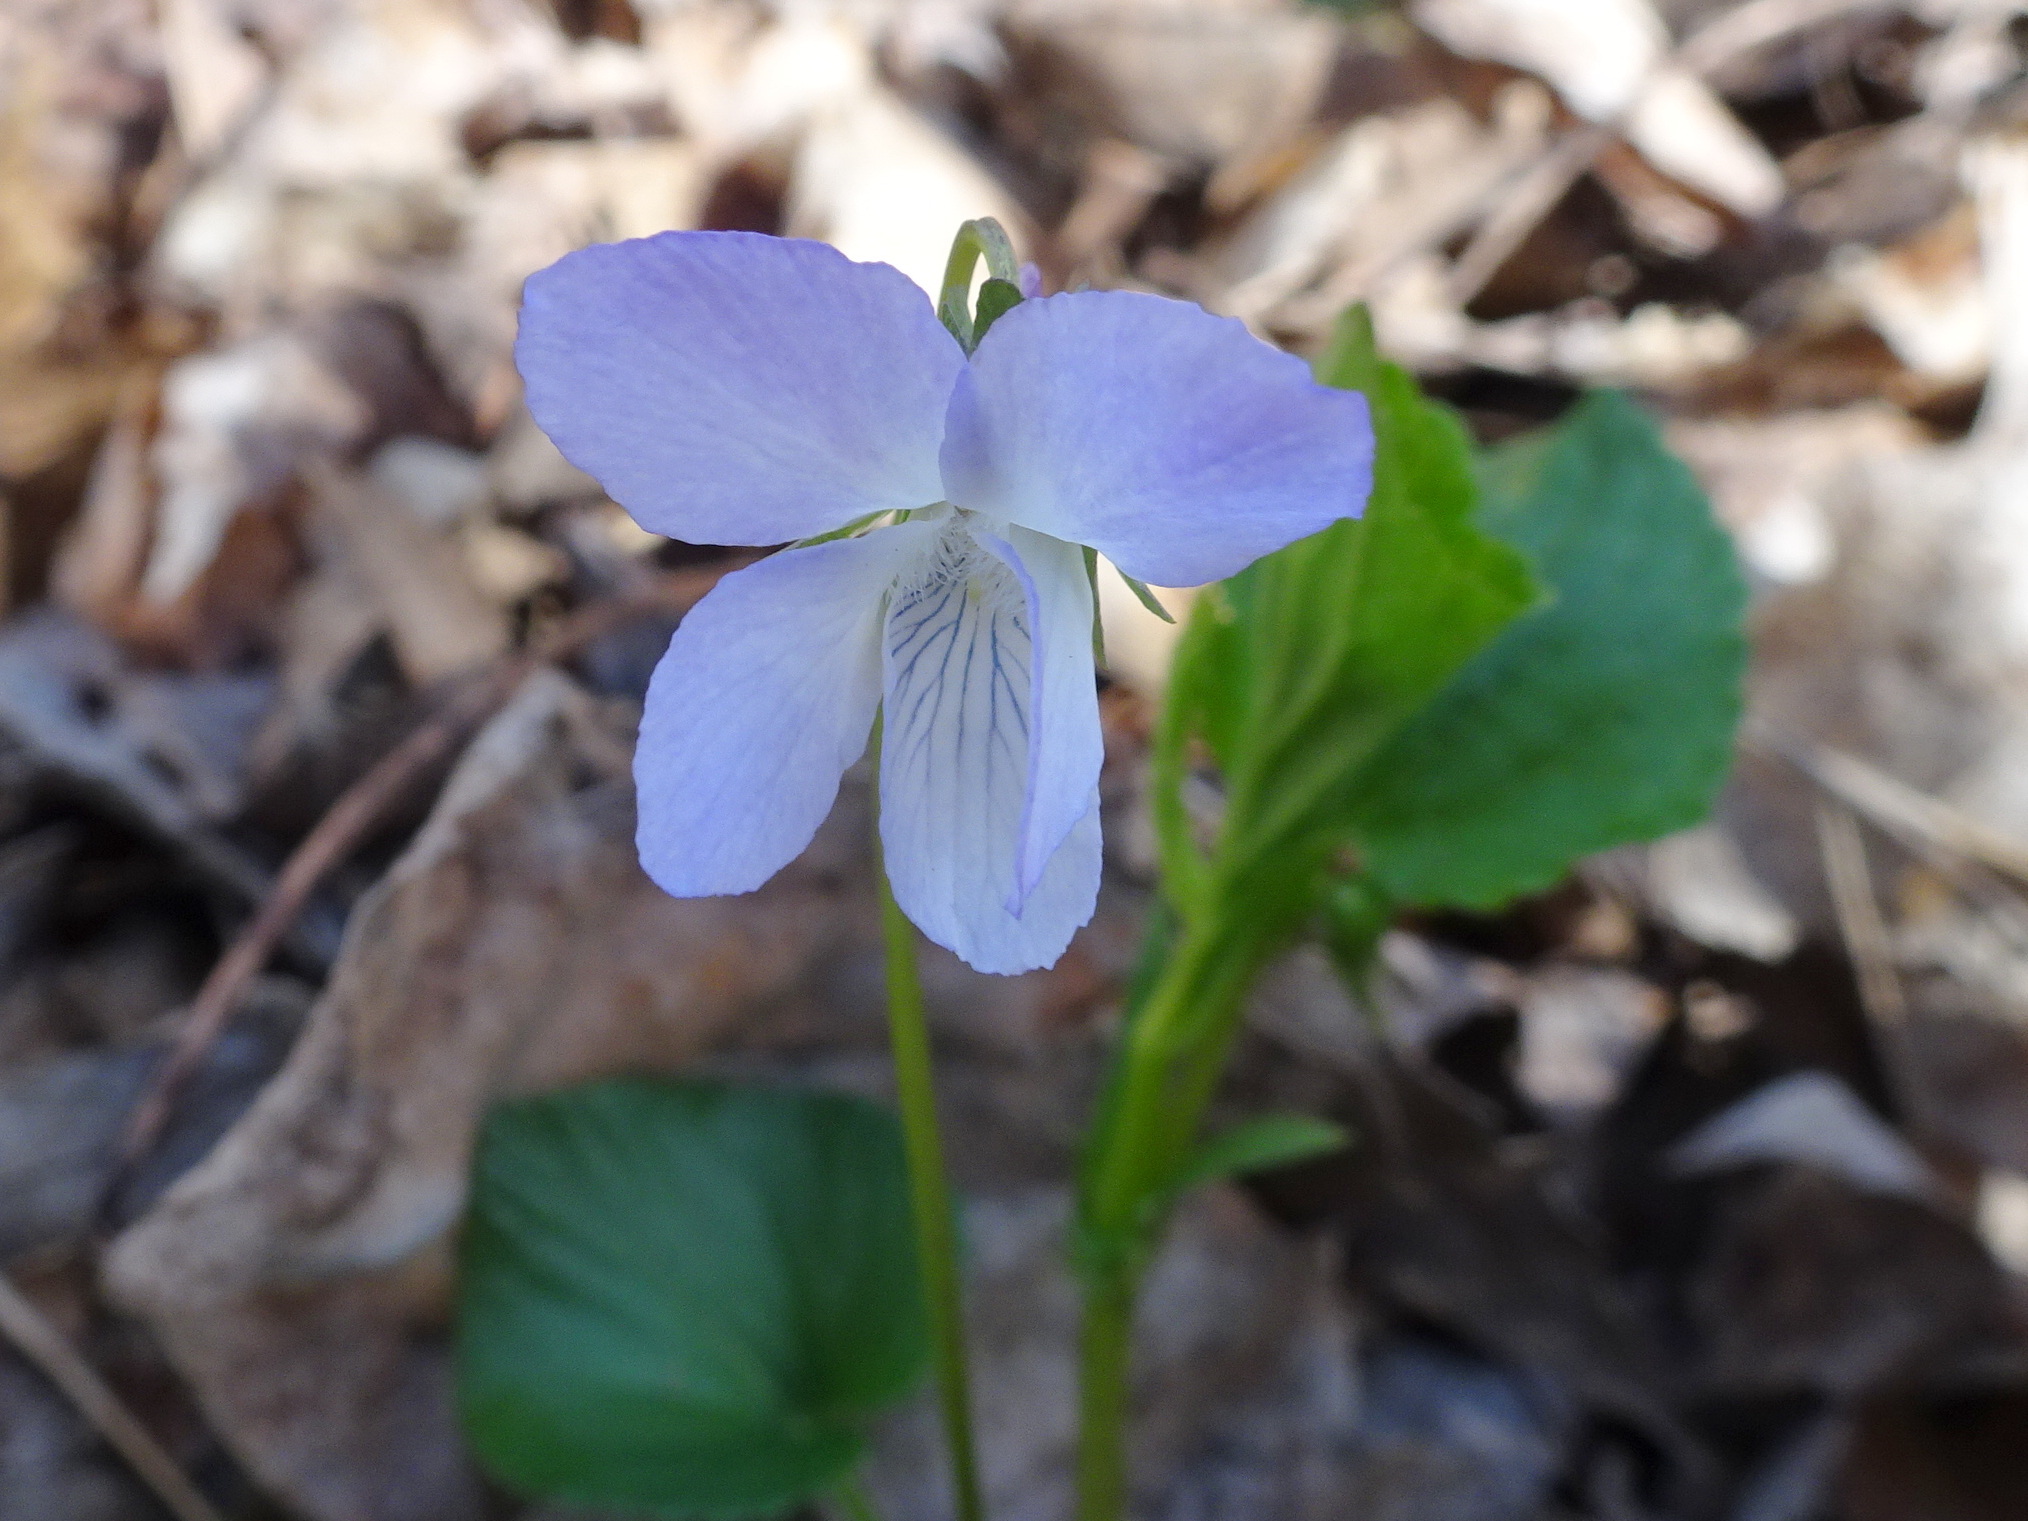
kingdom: Plantae
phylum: Tracheophyta
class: Magnoliopsida
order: Malpighiales
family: Violaceae
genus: Viola
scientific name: Viola labradorica
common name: Labrador violet
